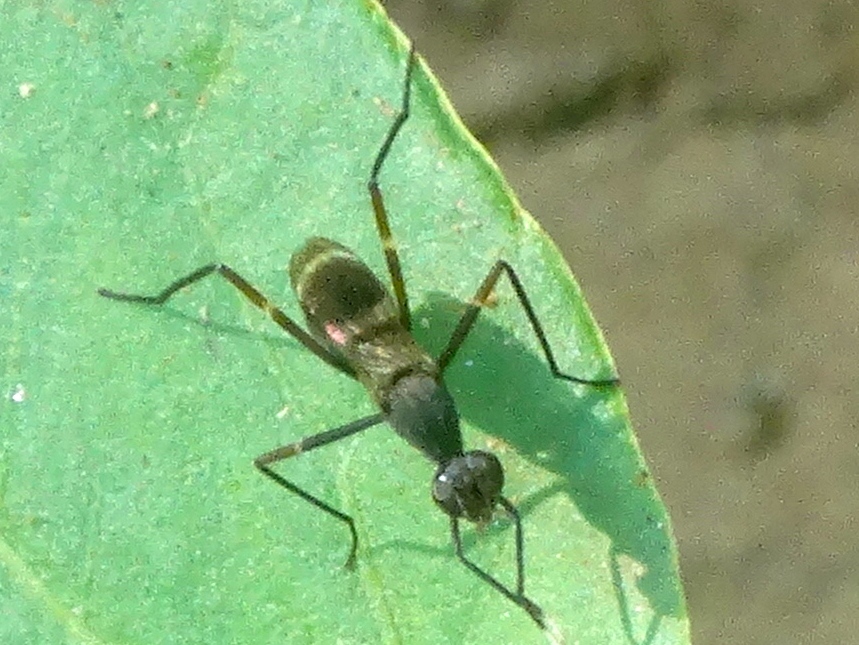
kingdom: Animalia
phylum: Arthropoda
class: Insecta
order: Diptera
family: Micropezidae
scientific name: Micropezidae
